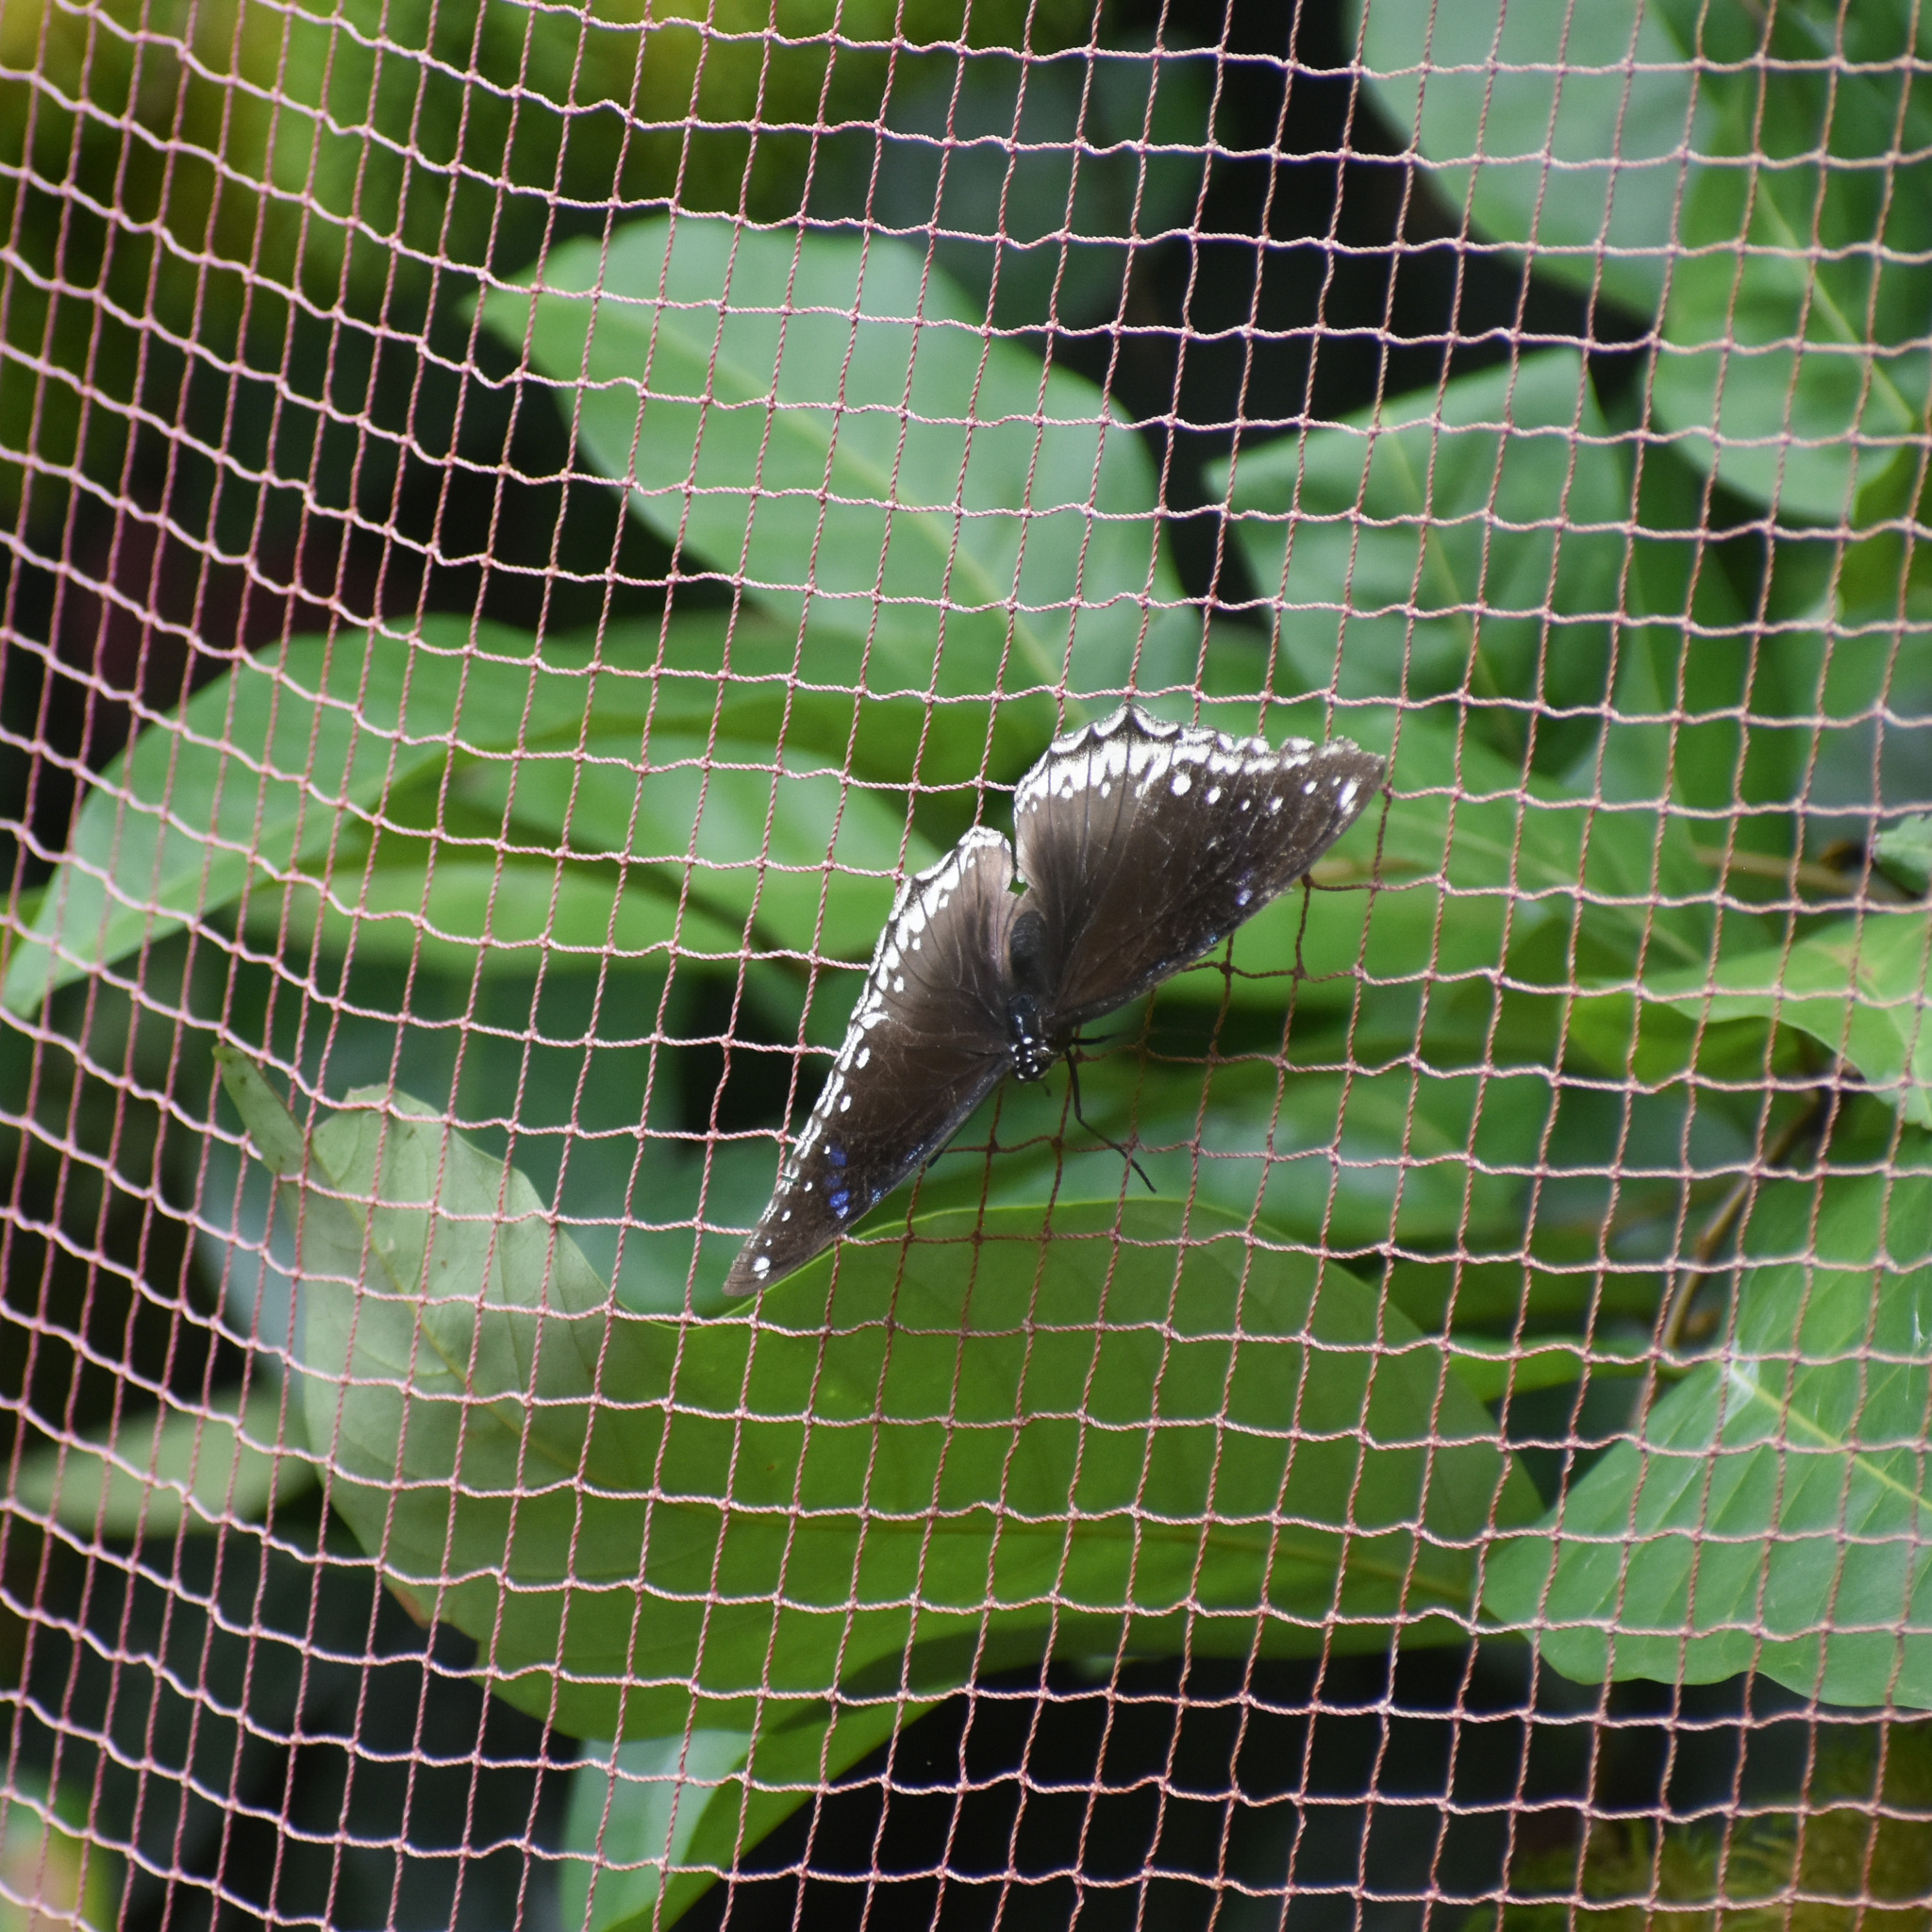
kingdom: Animalia
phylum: Arthropoda
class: Insecta
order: Lepidoptera
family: Nymphalidae
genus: Hypolimnas
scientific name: Hypolimnas bolina
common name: Great eggfly
